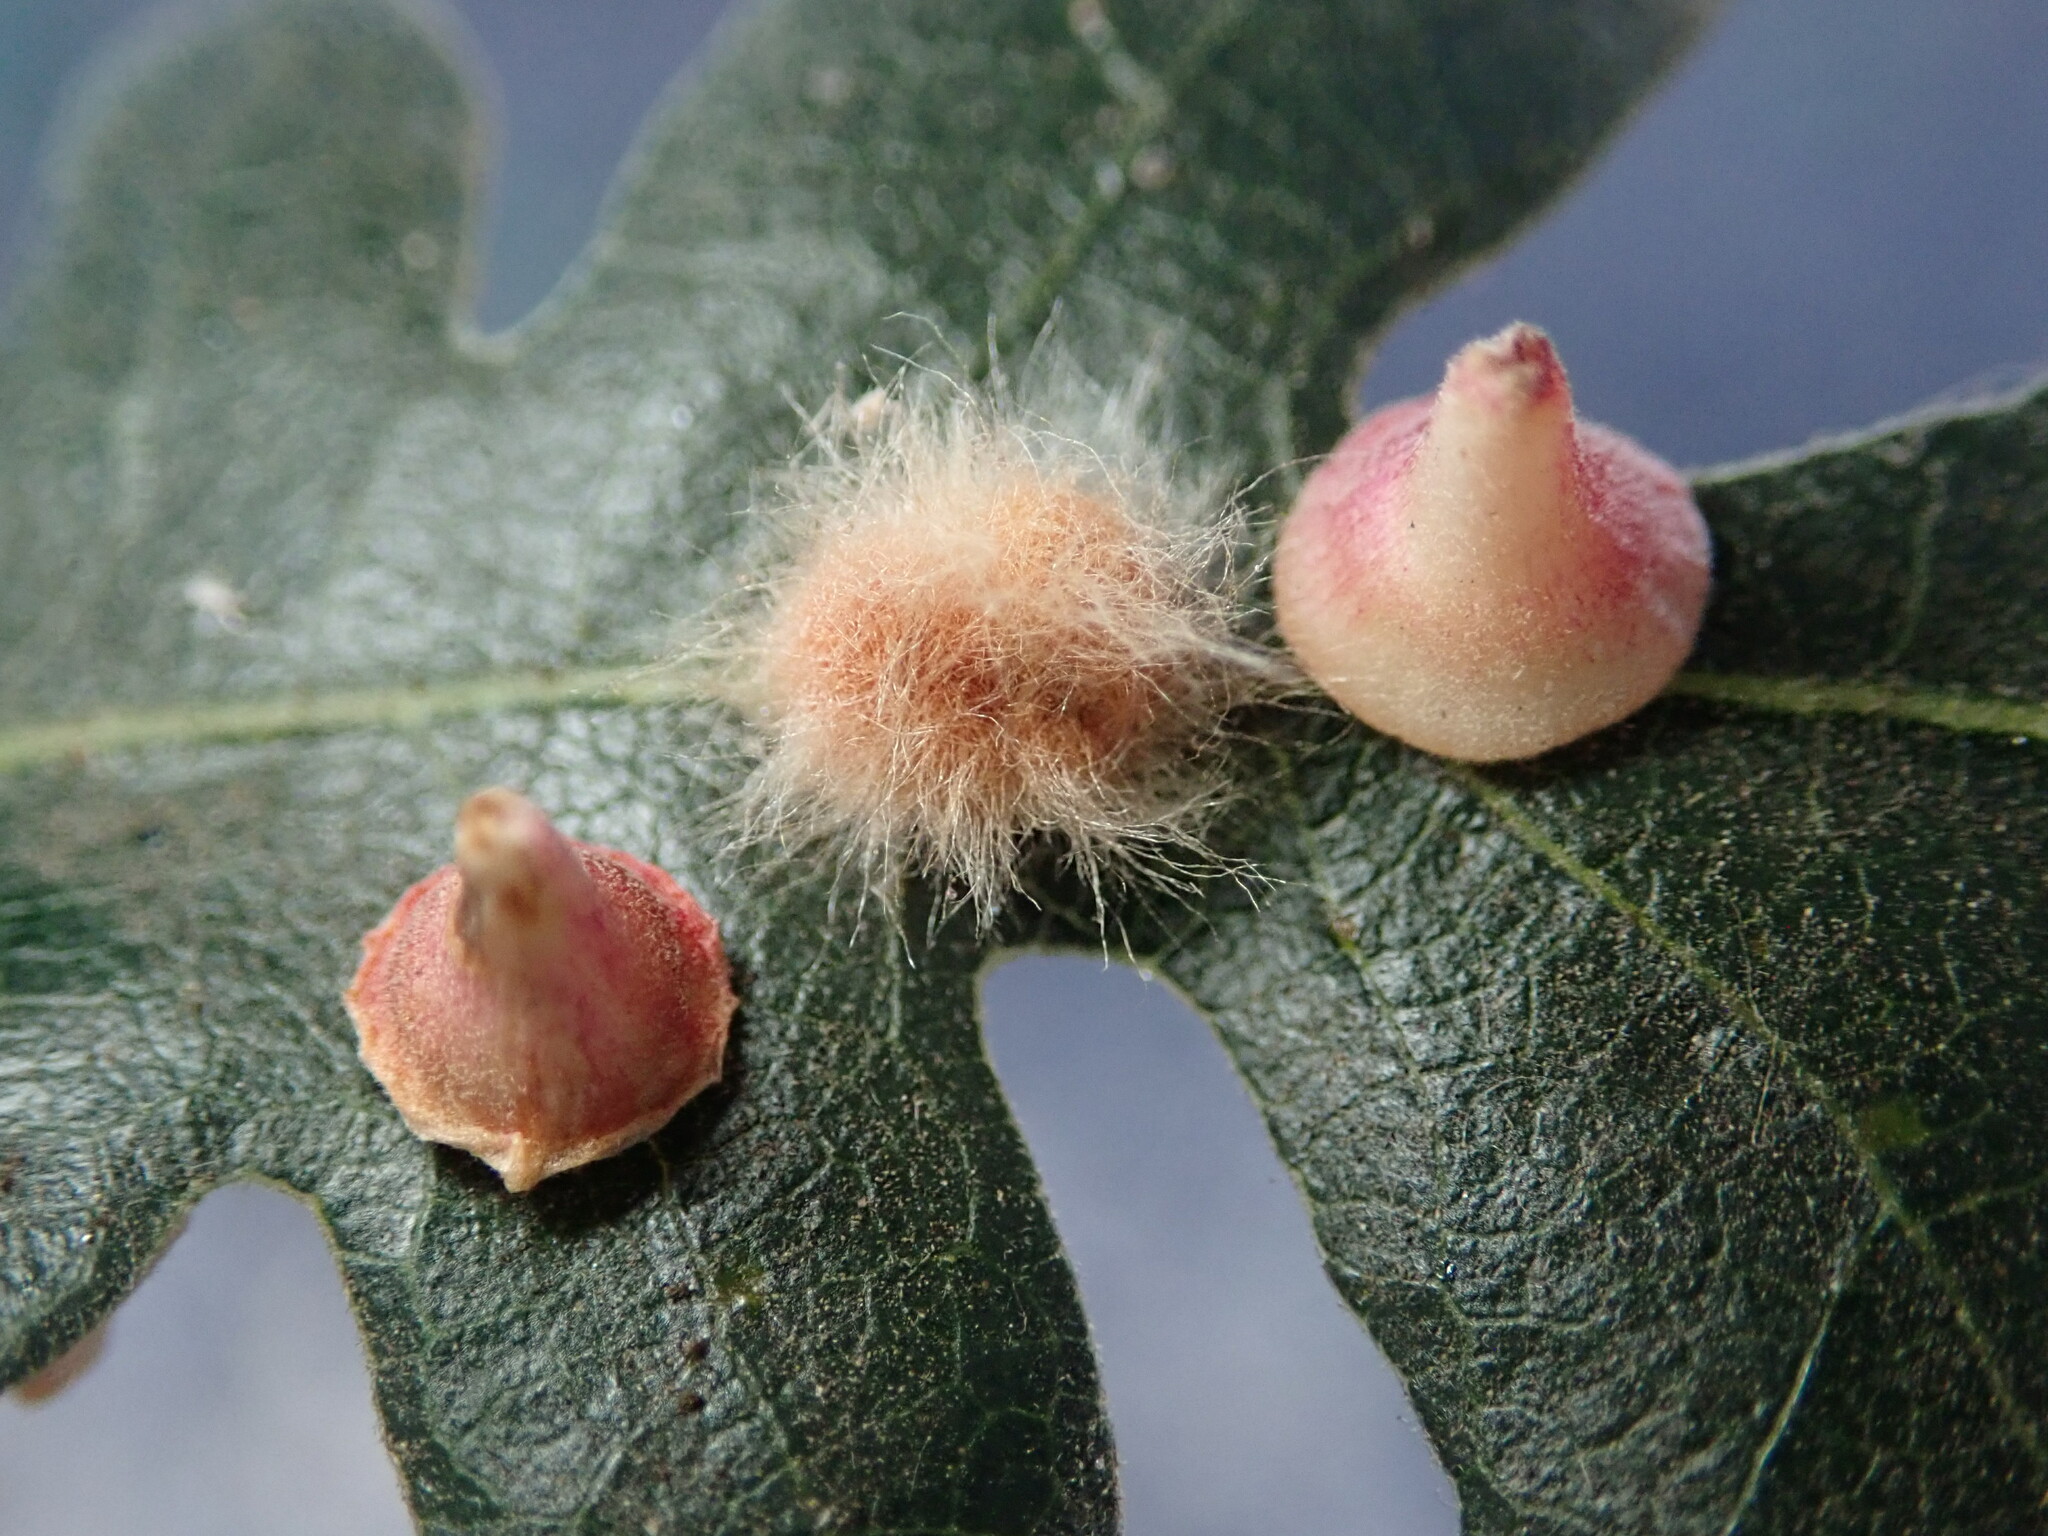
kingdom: Animalia
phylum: Arthropoda
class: Insecta
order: Hymenoptera
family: Cynipidae
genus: Andricus
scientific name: Andricus Druon fullawayi
